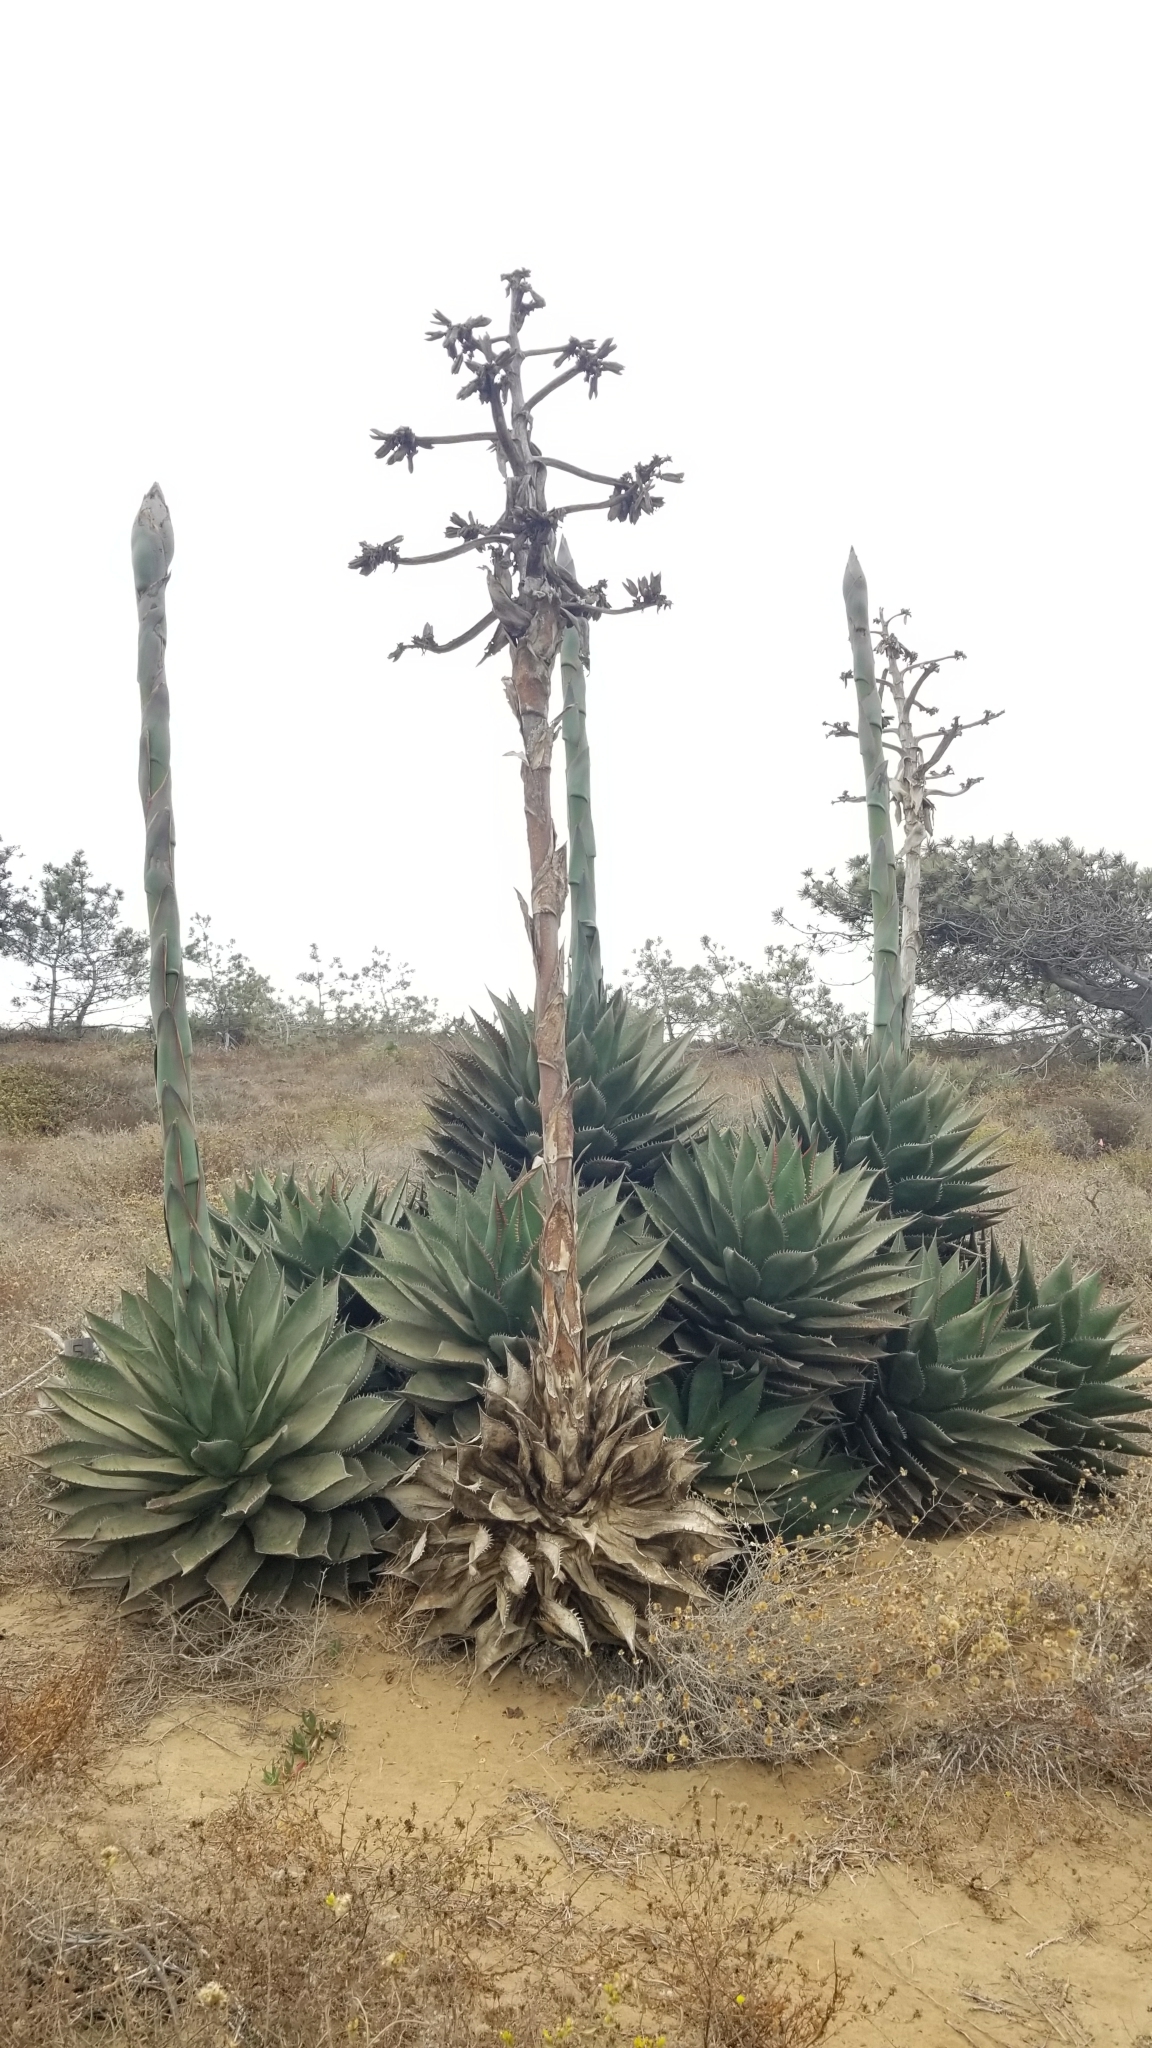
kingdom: Plantae
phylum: Tracheophyta
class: Liliopsida
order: Asparagales
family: Asparagaceae
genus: Agave
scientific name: Agave shawii
